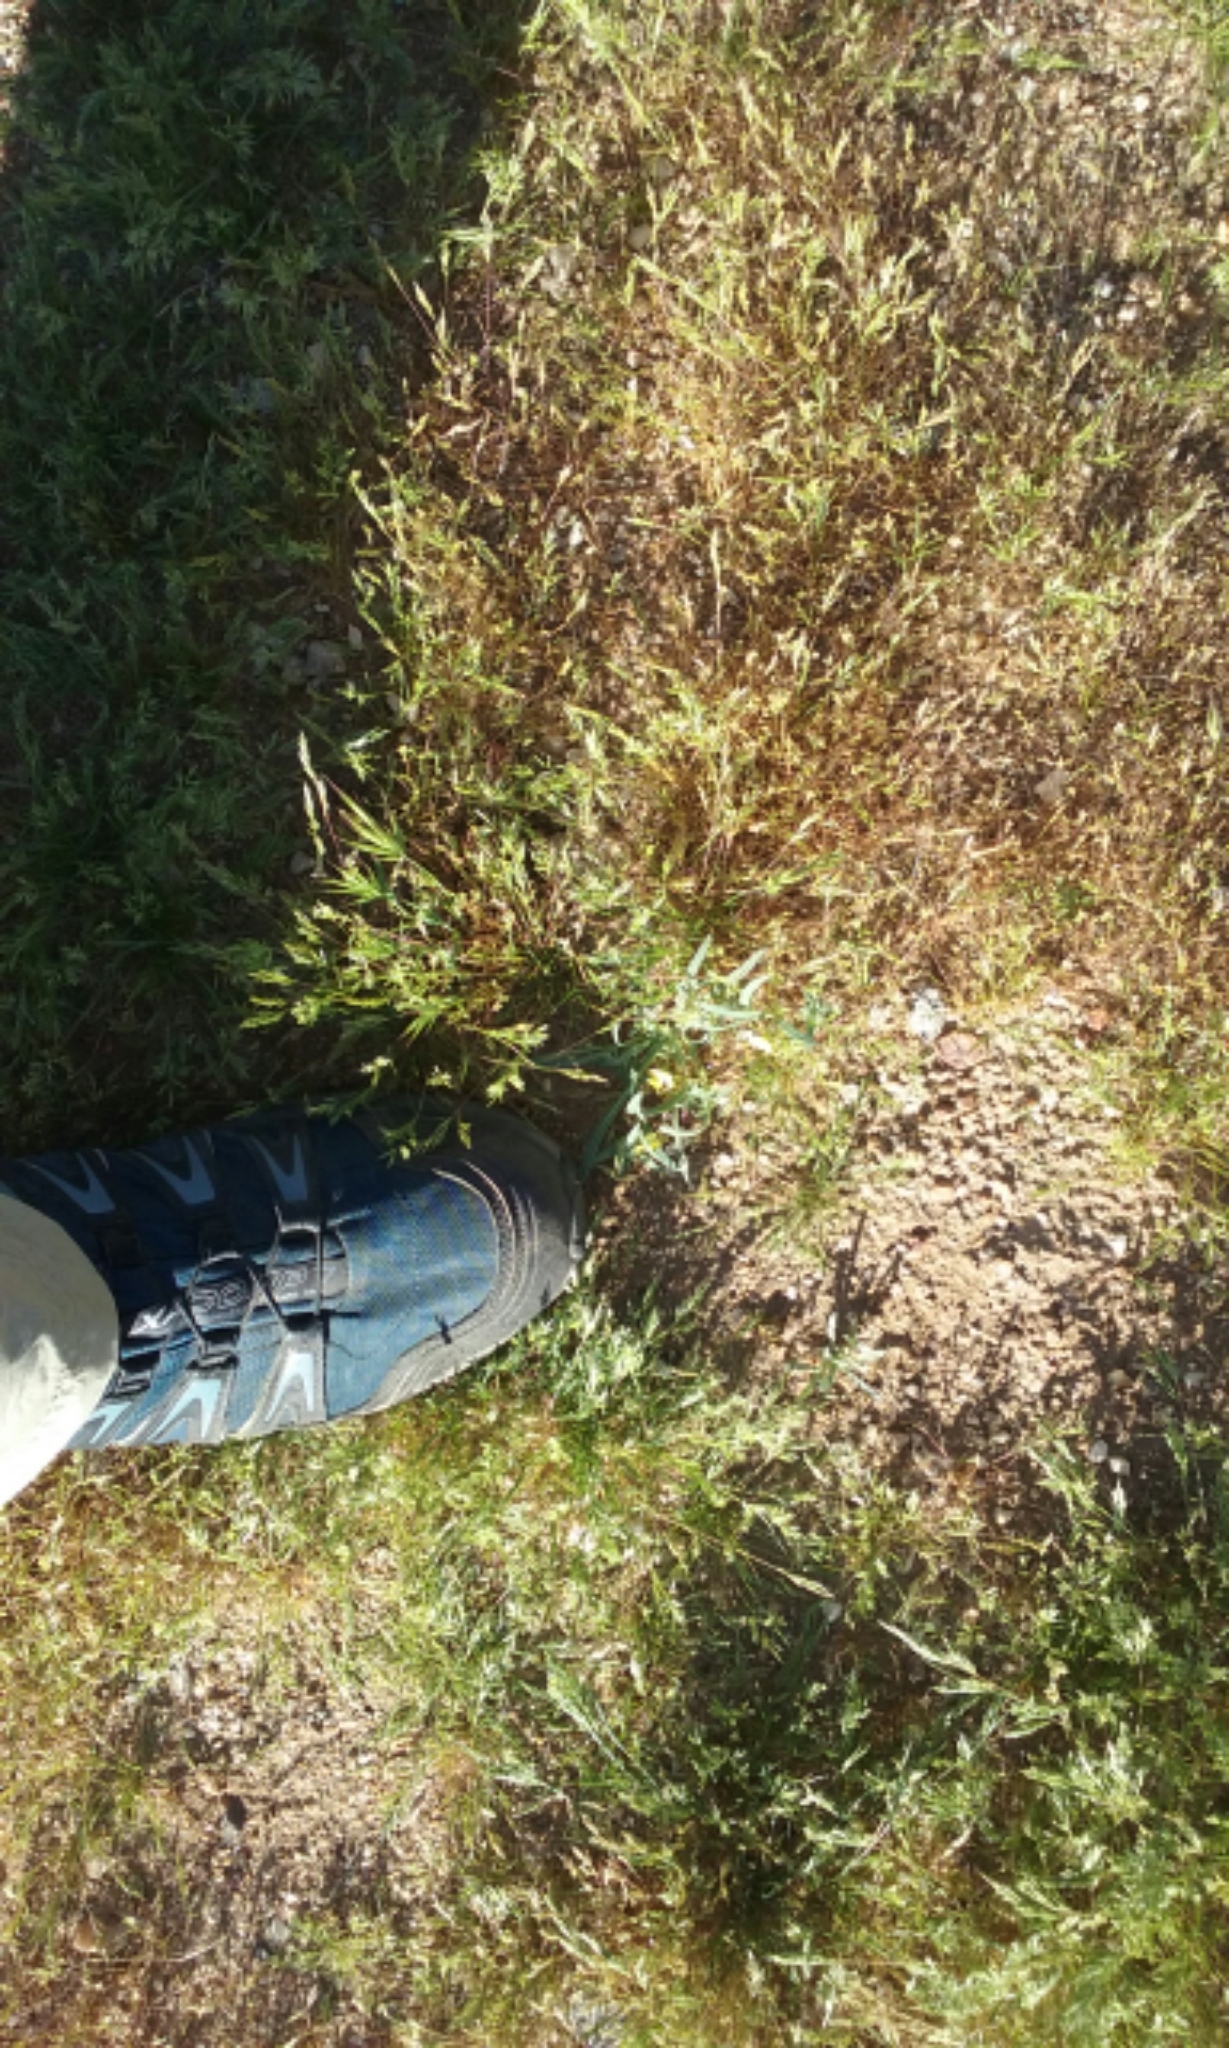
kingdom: Plantae
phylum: Tracheophyta
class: Magnoliopsida
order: Myrtales
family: Onagraceae
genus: Camissoniopsis
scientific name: Camissoniopsis pallida
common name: Paleyellow suncup
